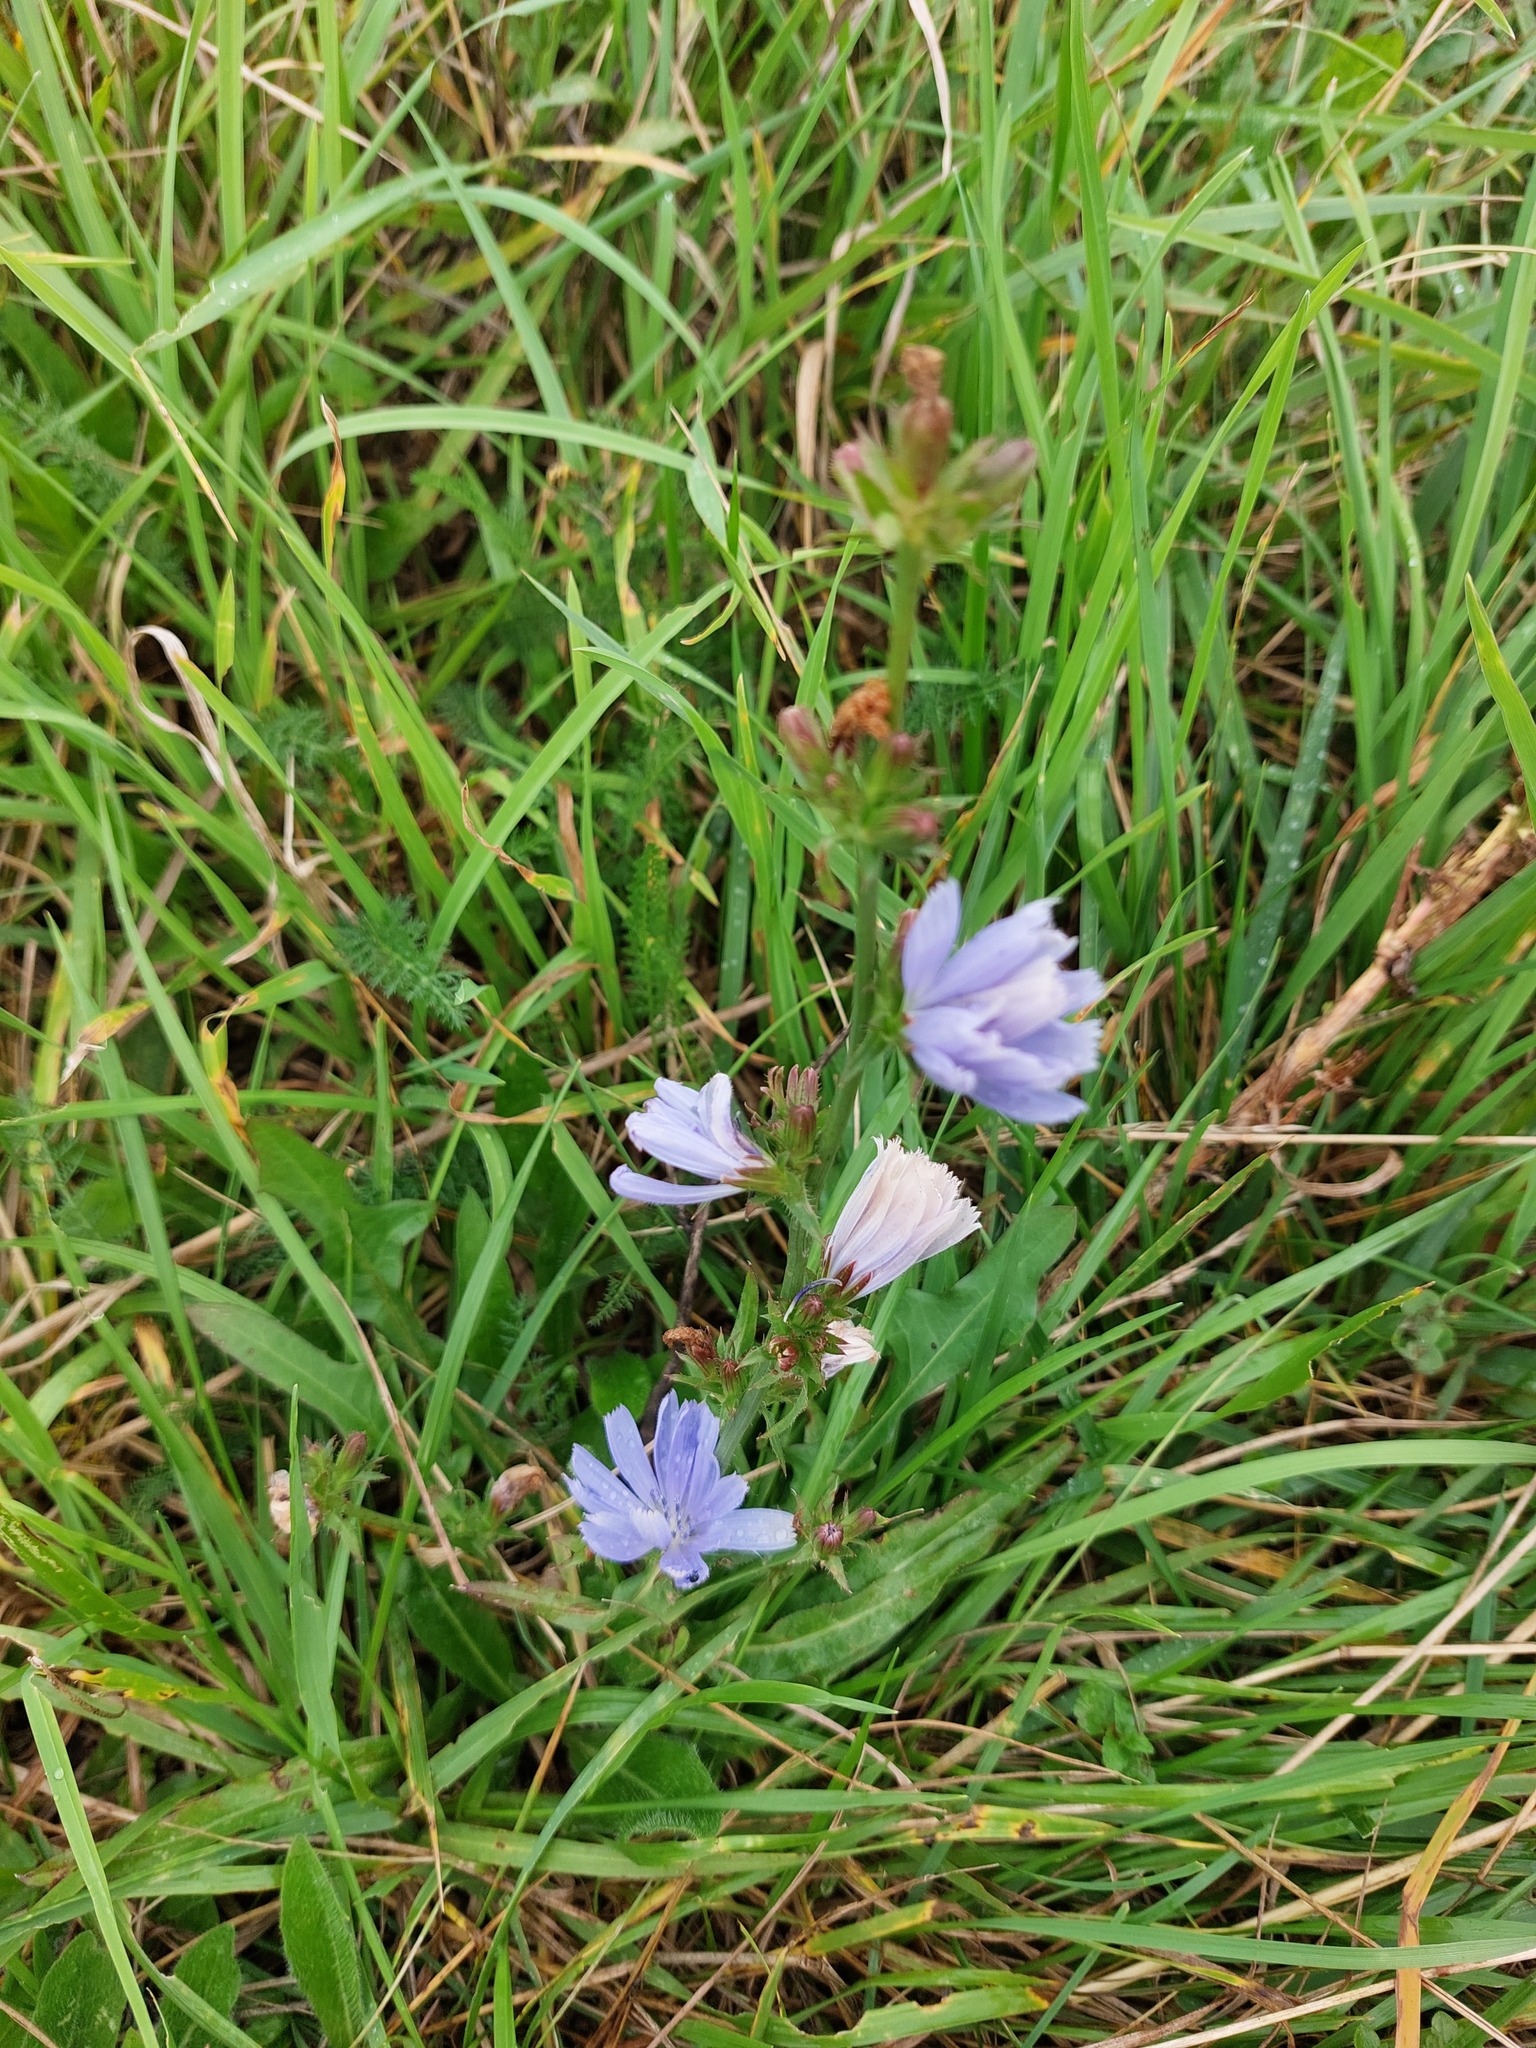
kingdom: Plantae
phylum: Tracheophyta
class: Magnoliopsida
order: Asterales
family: Asteraceae
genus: Cichorium
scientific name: Cichorium intybus
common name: Chicory
